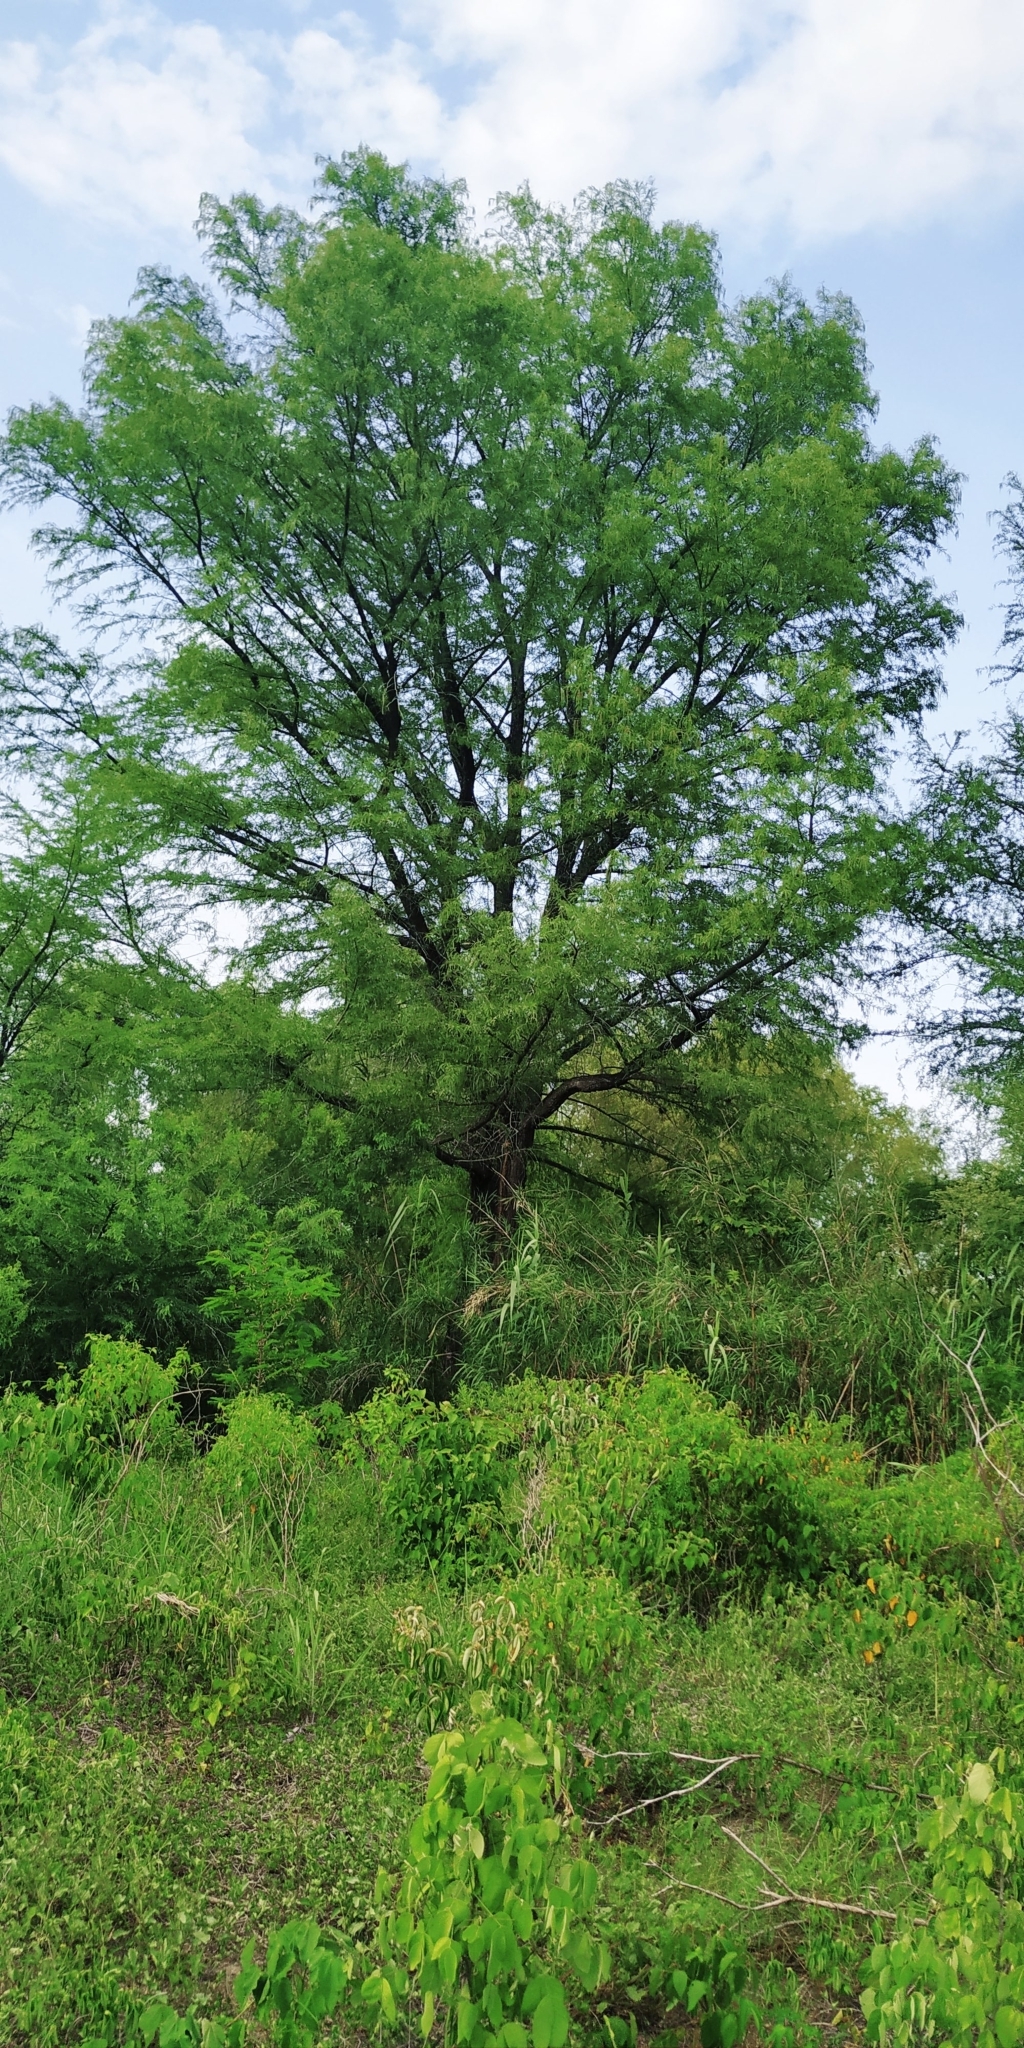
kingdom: Plantae
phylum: Tracheophyta
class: Pinopsida
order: Pinales
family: Cupressaceae
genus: Taxodium
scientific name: Taxodium mucronatum
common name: Montezume bald cypress
